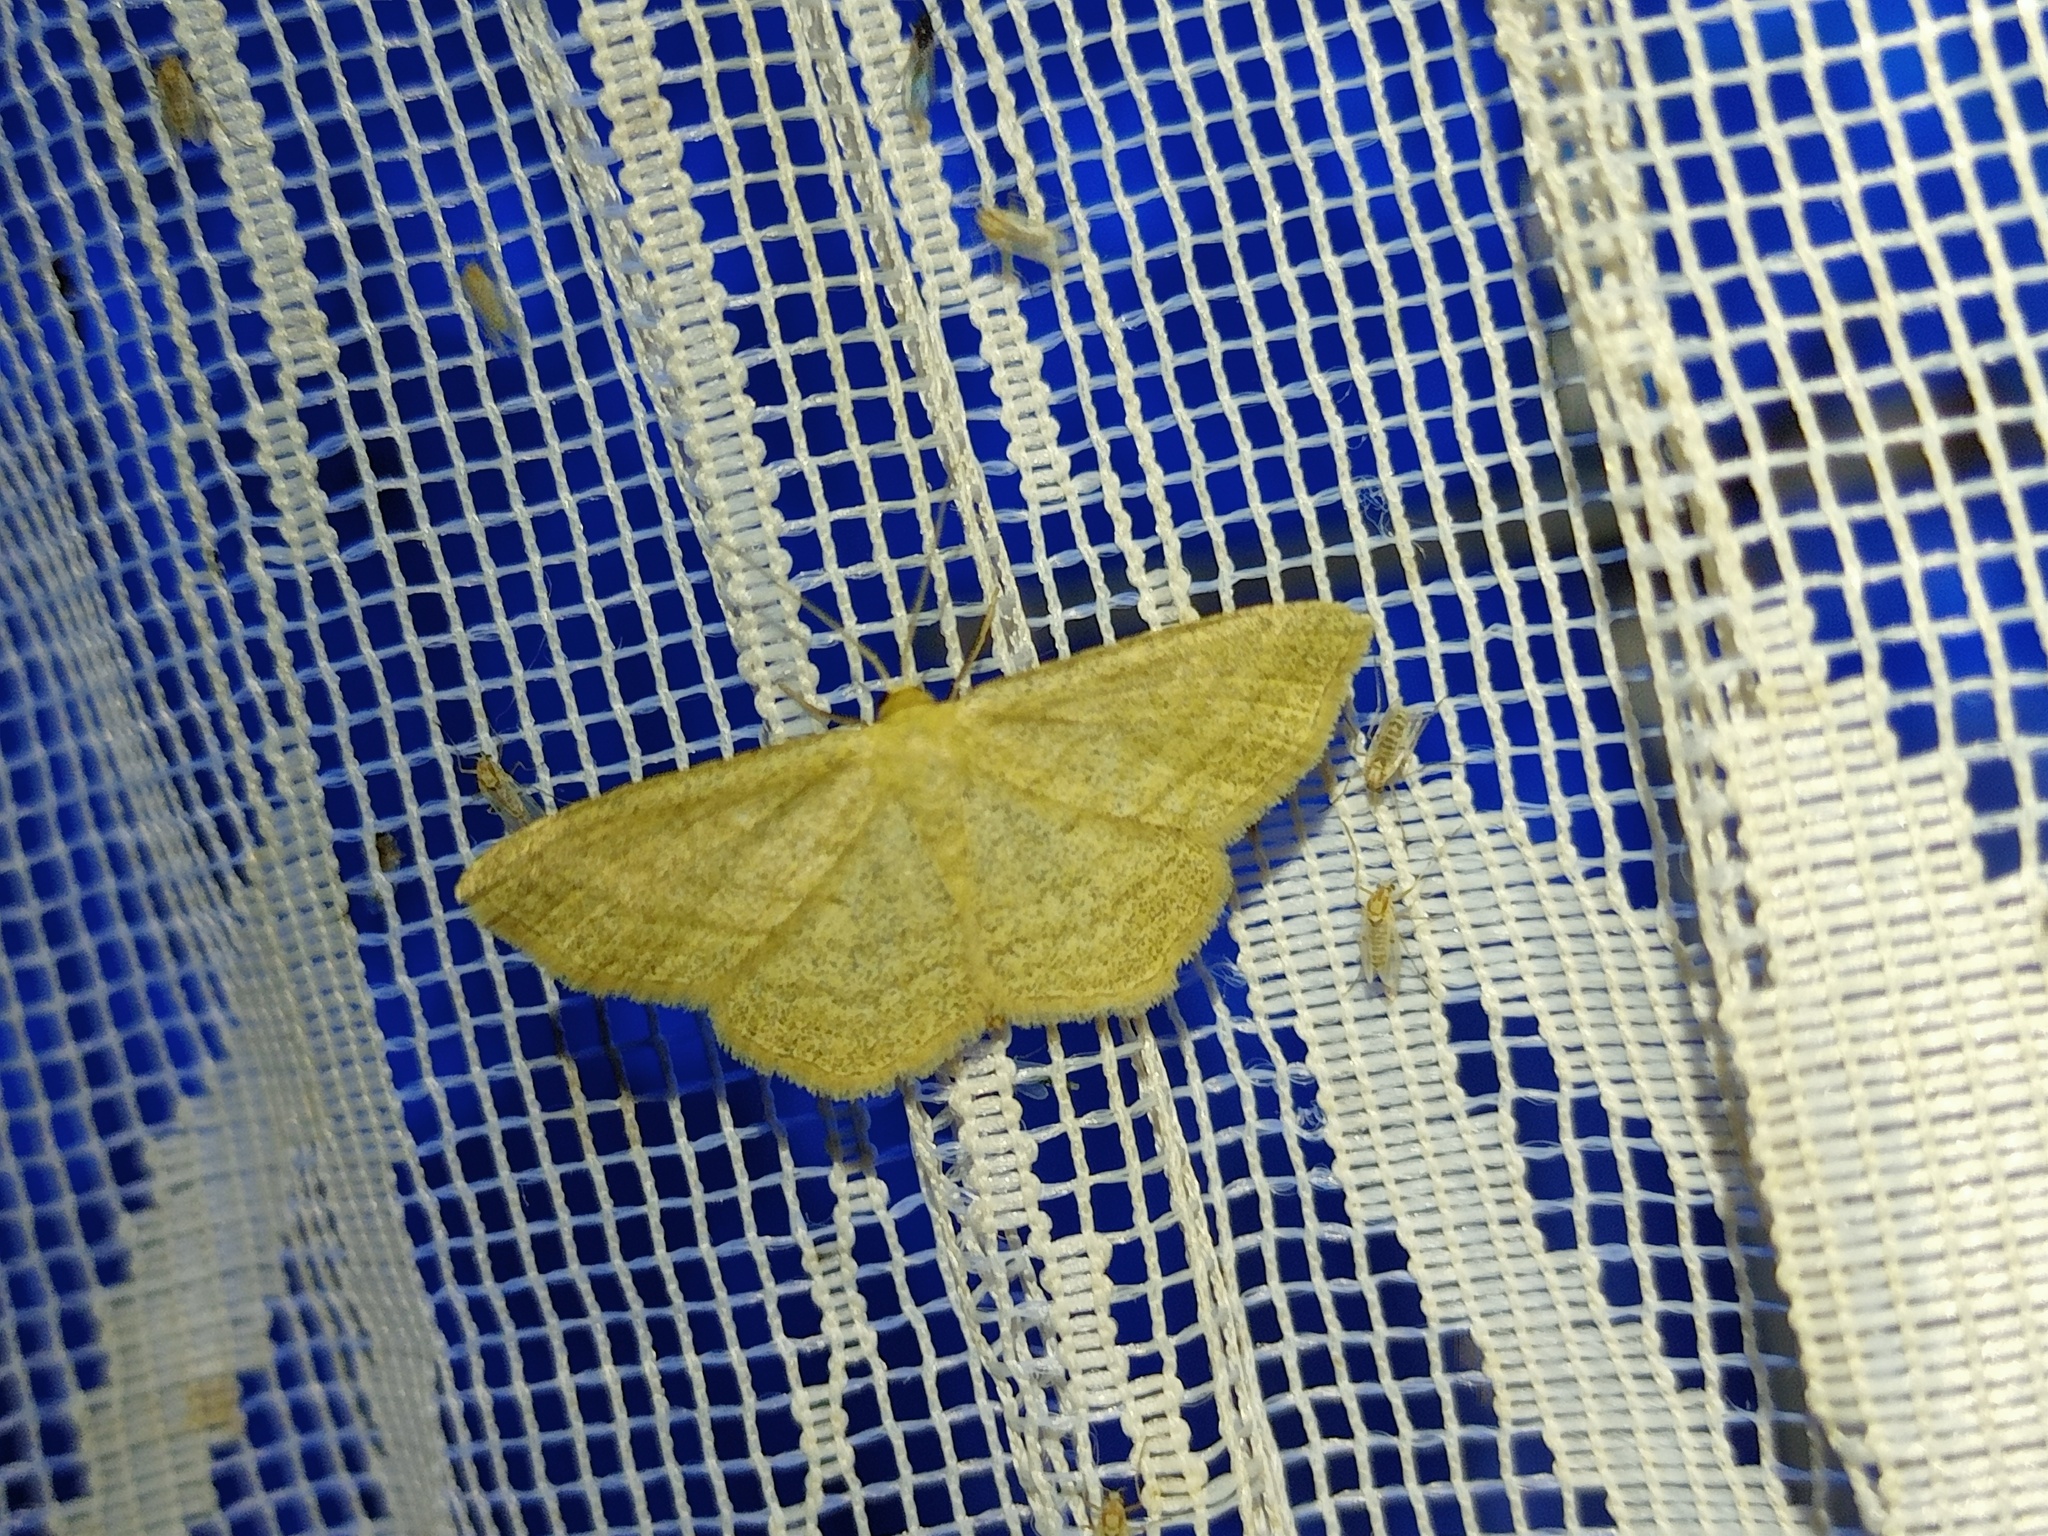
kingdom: Animalia
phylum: Arthropoda
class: Insecta
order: Lepidoptera
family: Geometridae
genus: Scopula
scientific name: Scopula virgulata
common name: Streaked wave
